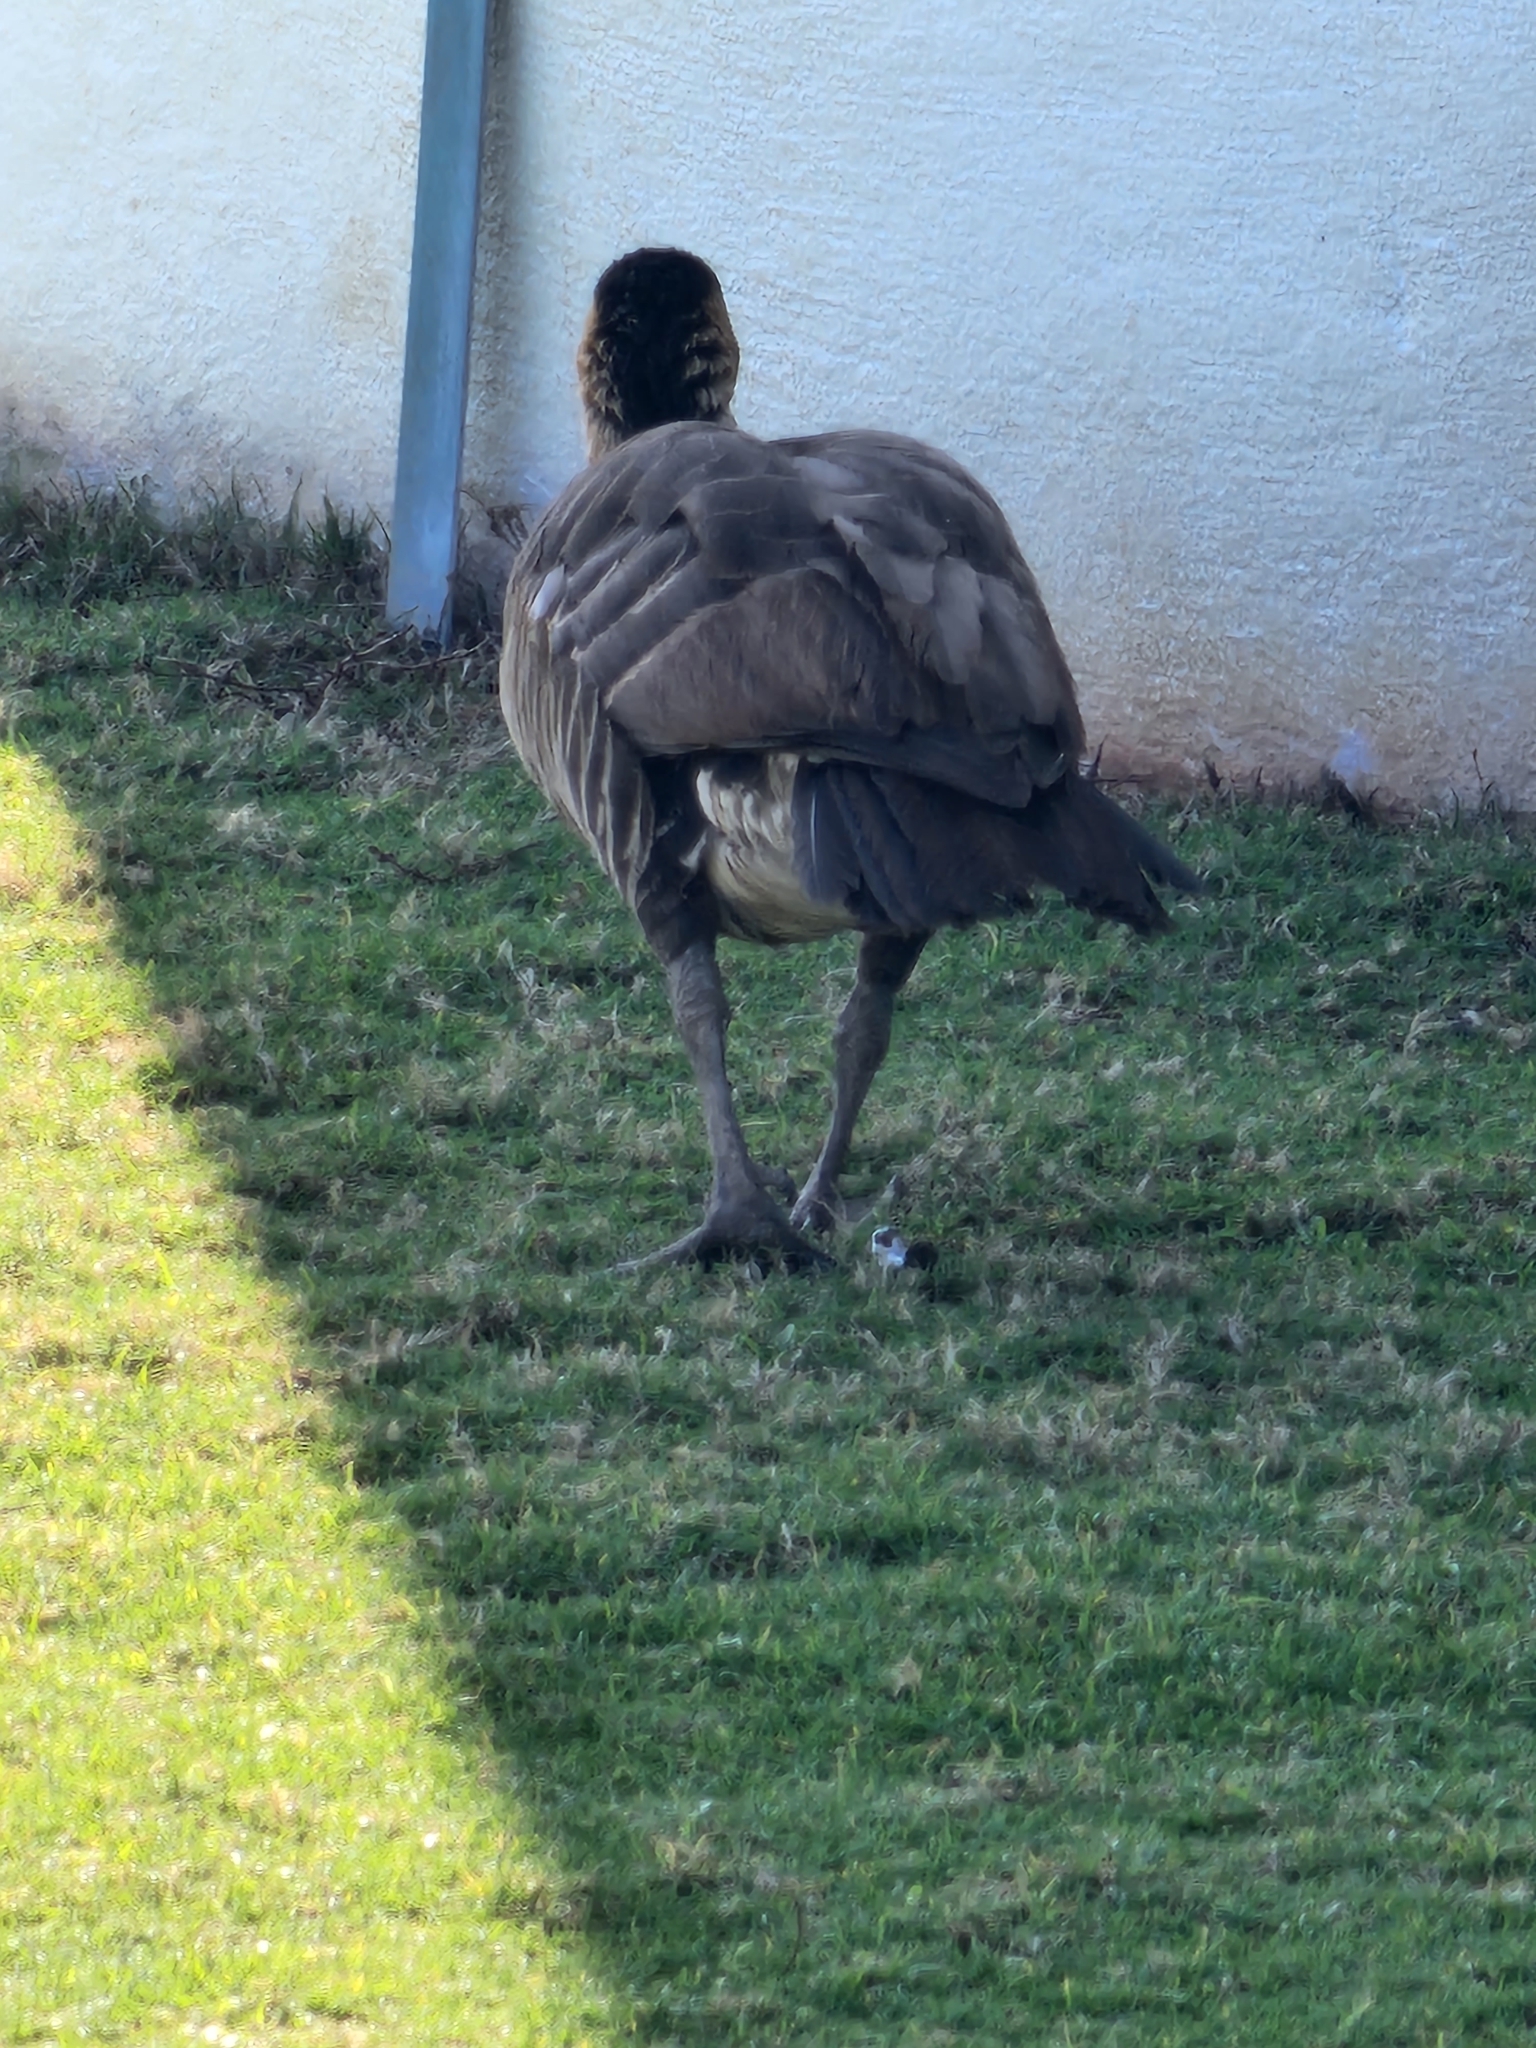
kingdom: Animalia
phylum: Chordata
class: Aves
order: Anseriformes
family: Anatidae
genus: Branta
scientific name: Branta sandvicensis
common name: Nene
